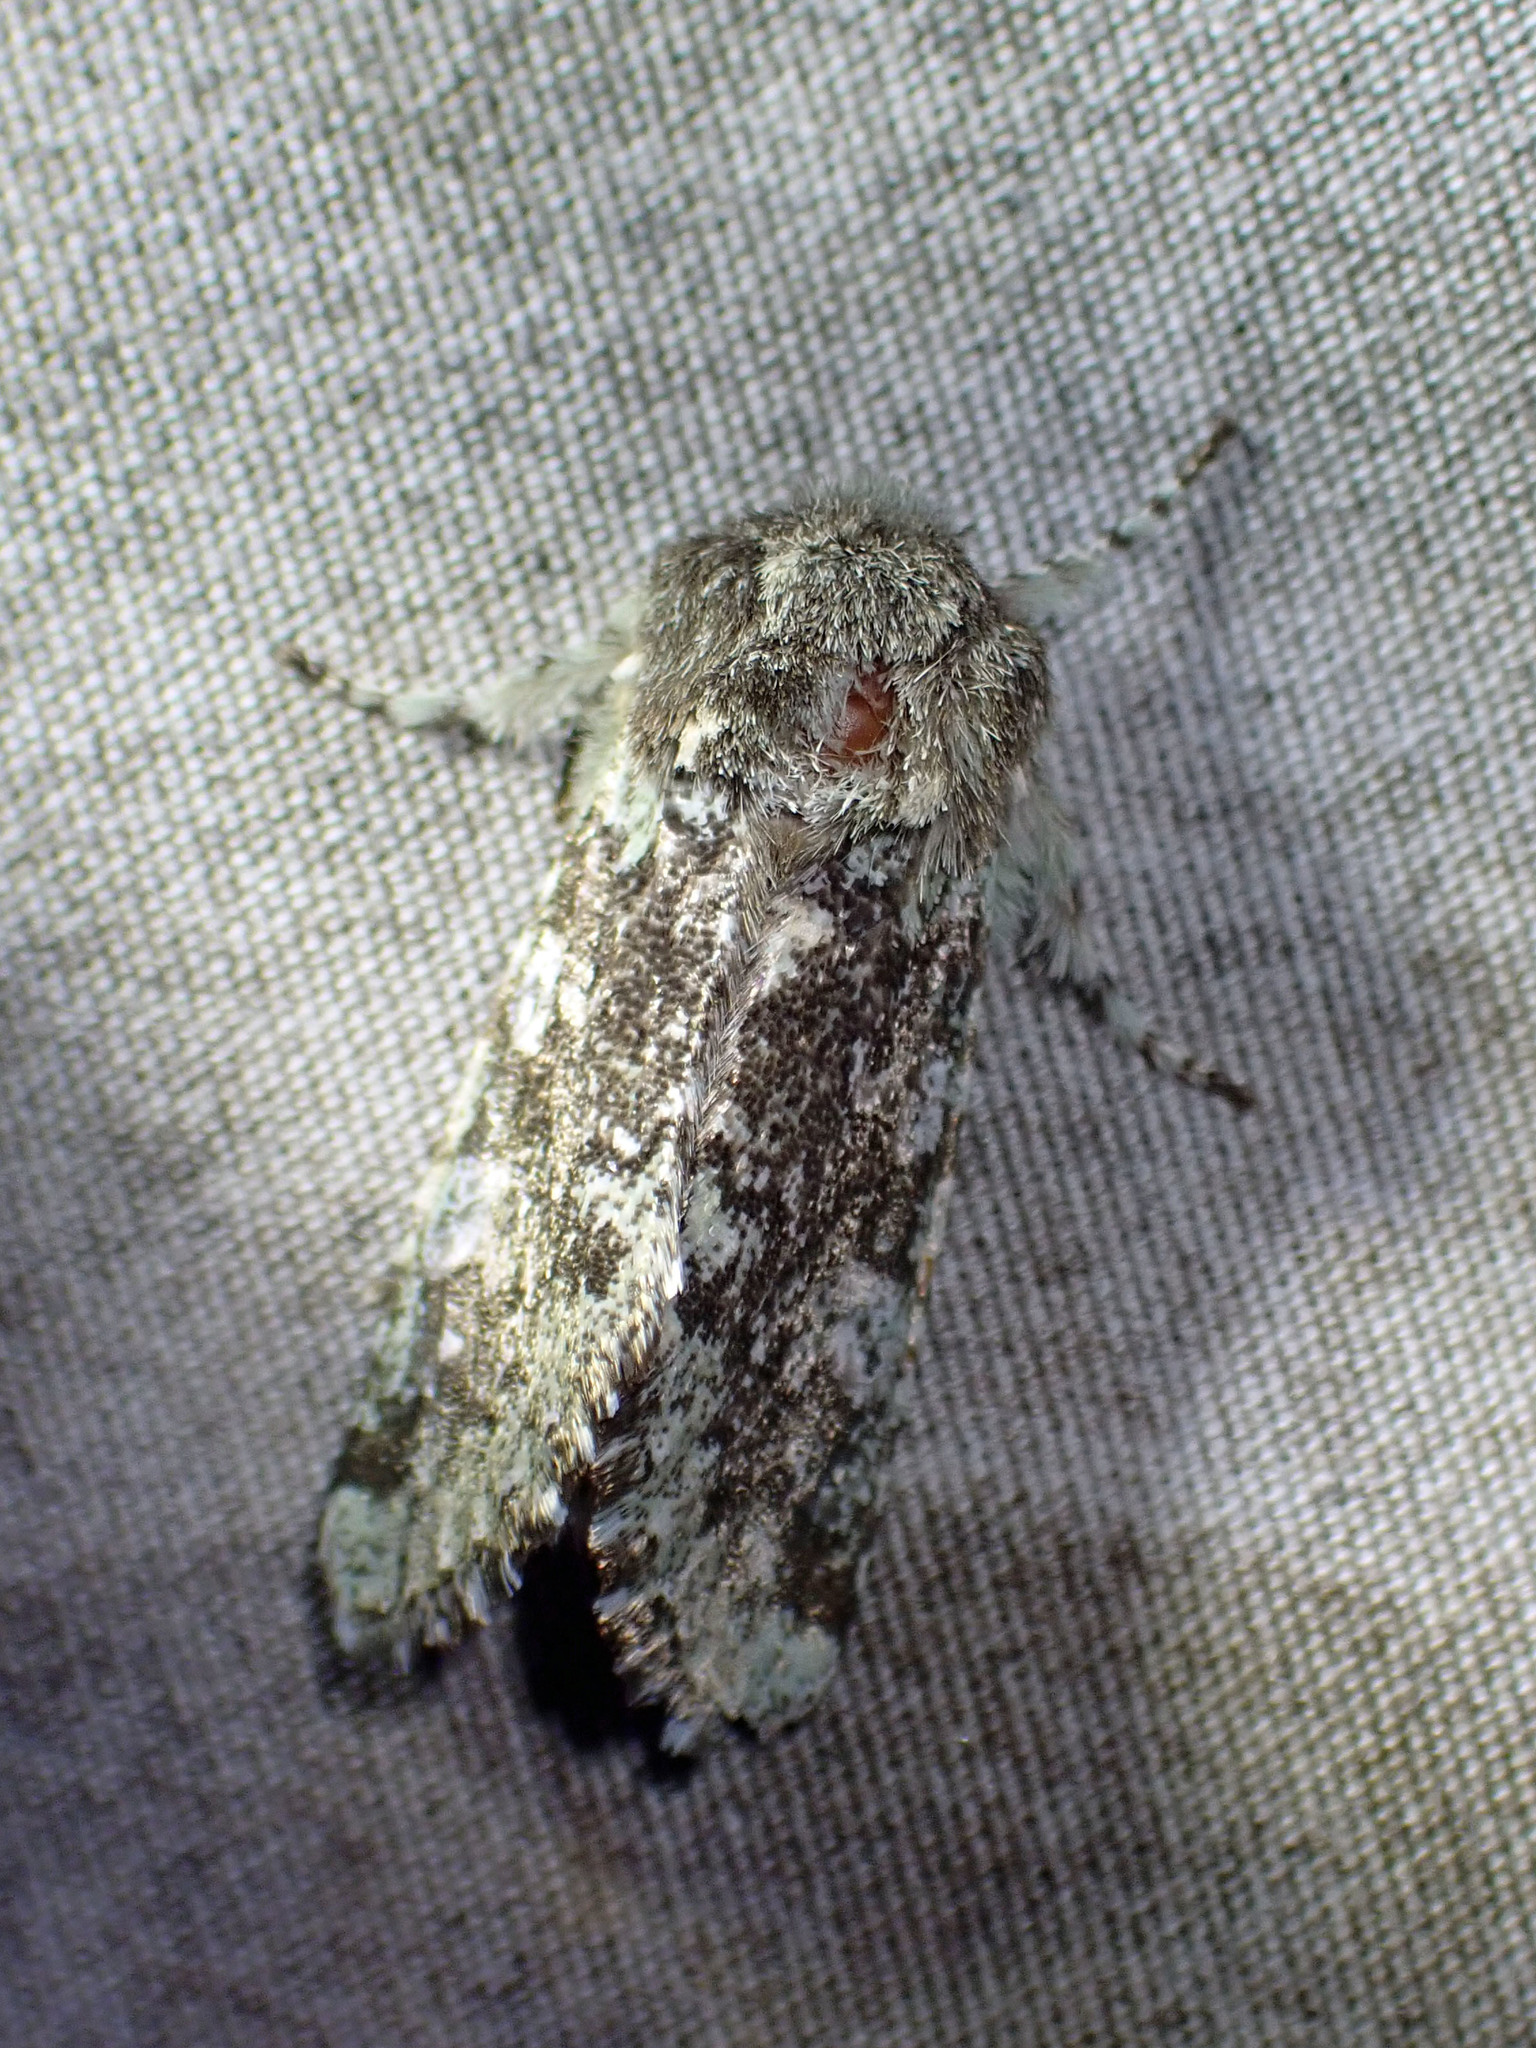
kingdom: Animalia
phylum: Arthropoda
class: Insecta
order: Lepidoptera
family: Noctuidae
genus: Feralia
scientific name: Feralia major
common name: Major sallow
